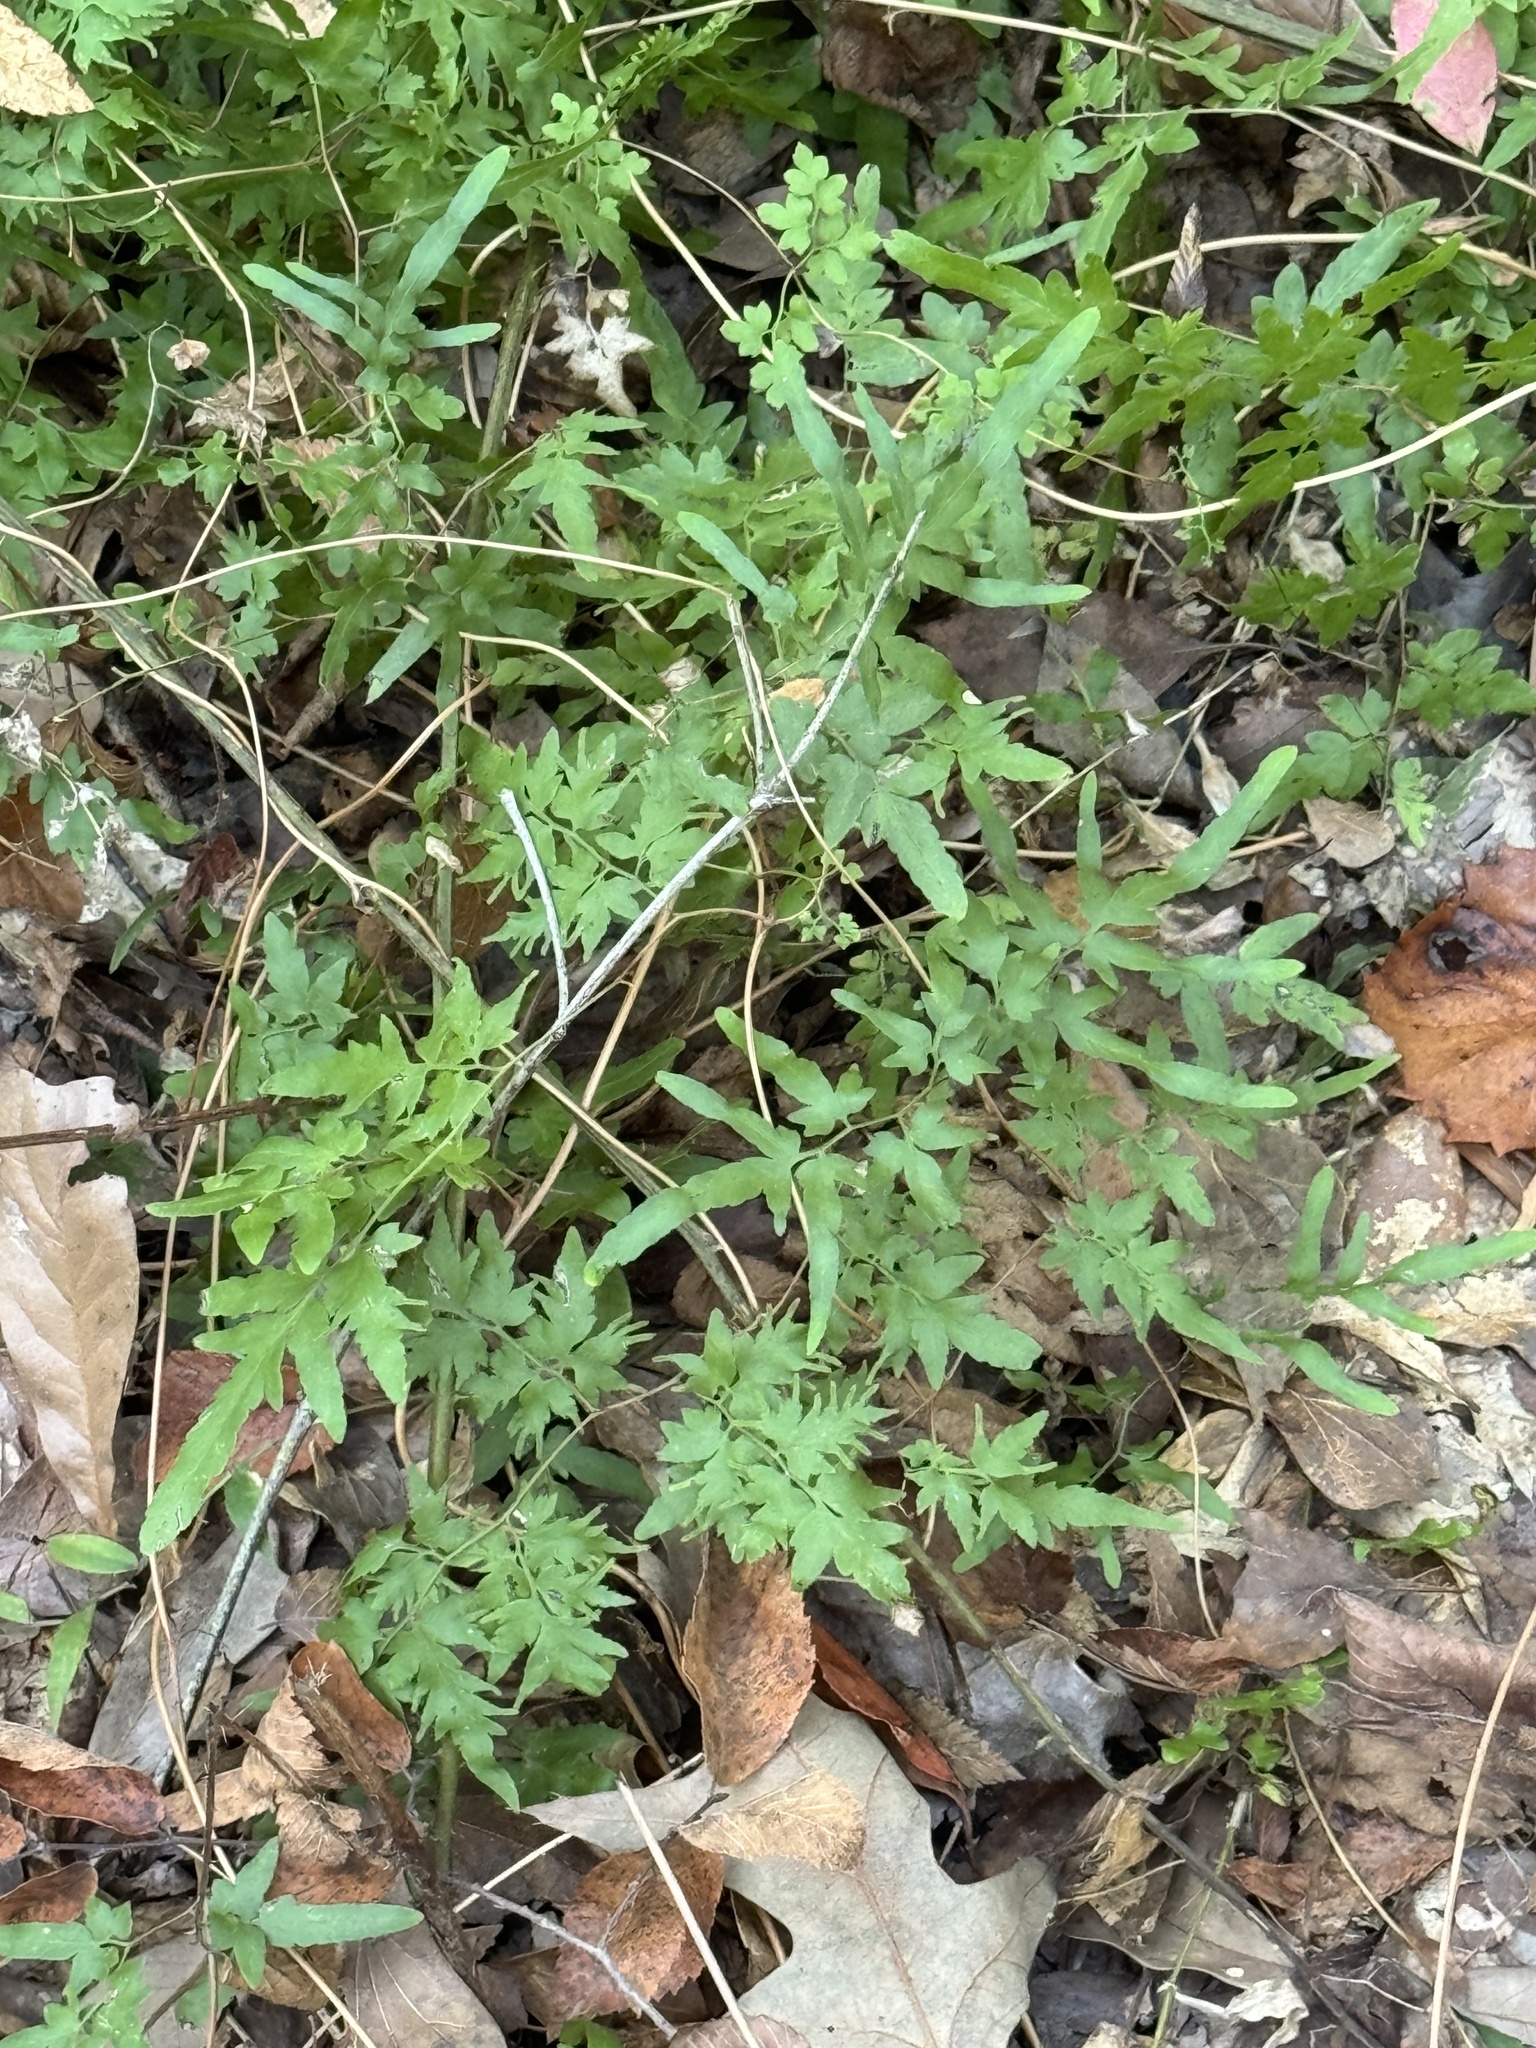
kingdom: Plantae
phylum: Tracheophyta
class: Polypodiopsida
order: Schizaeales
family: Lygodiaceae
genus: Lygodium
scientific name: Lygodium japonicum
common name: Japanese climbing fern
